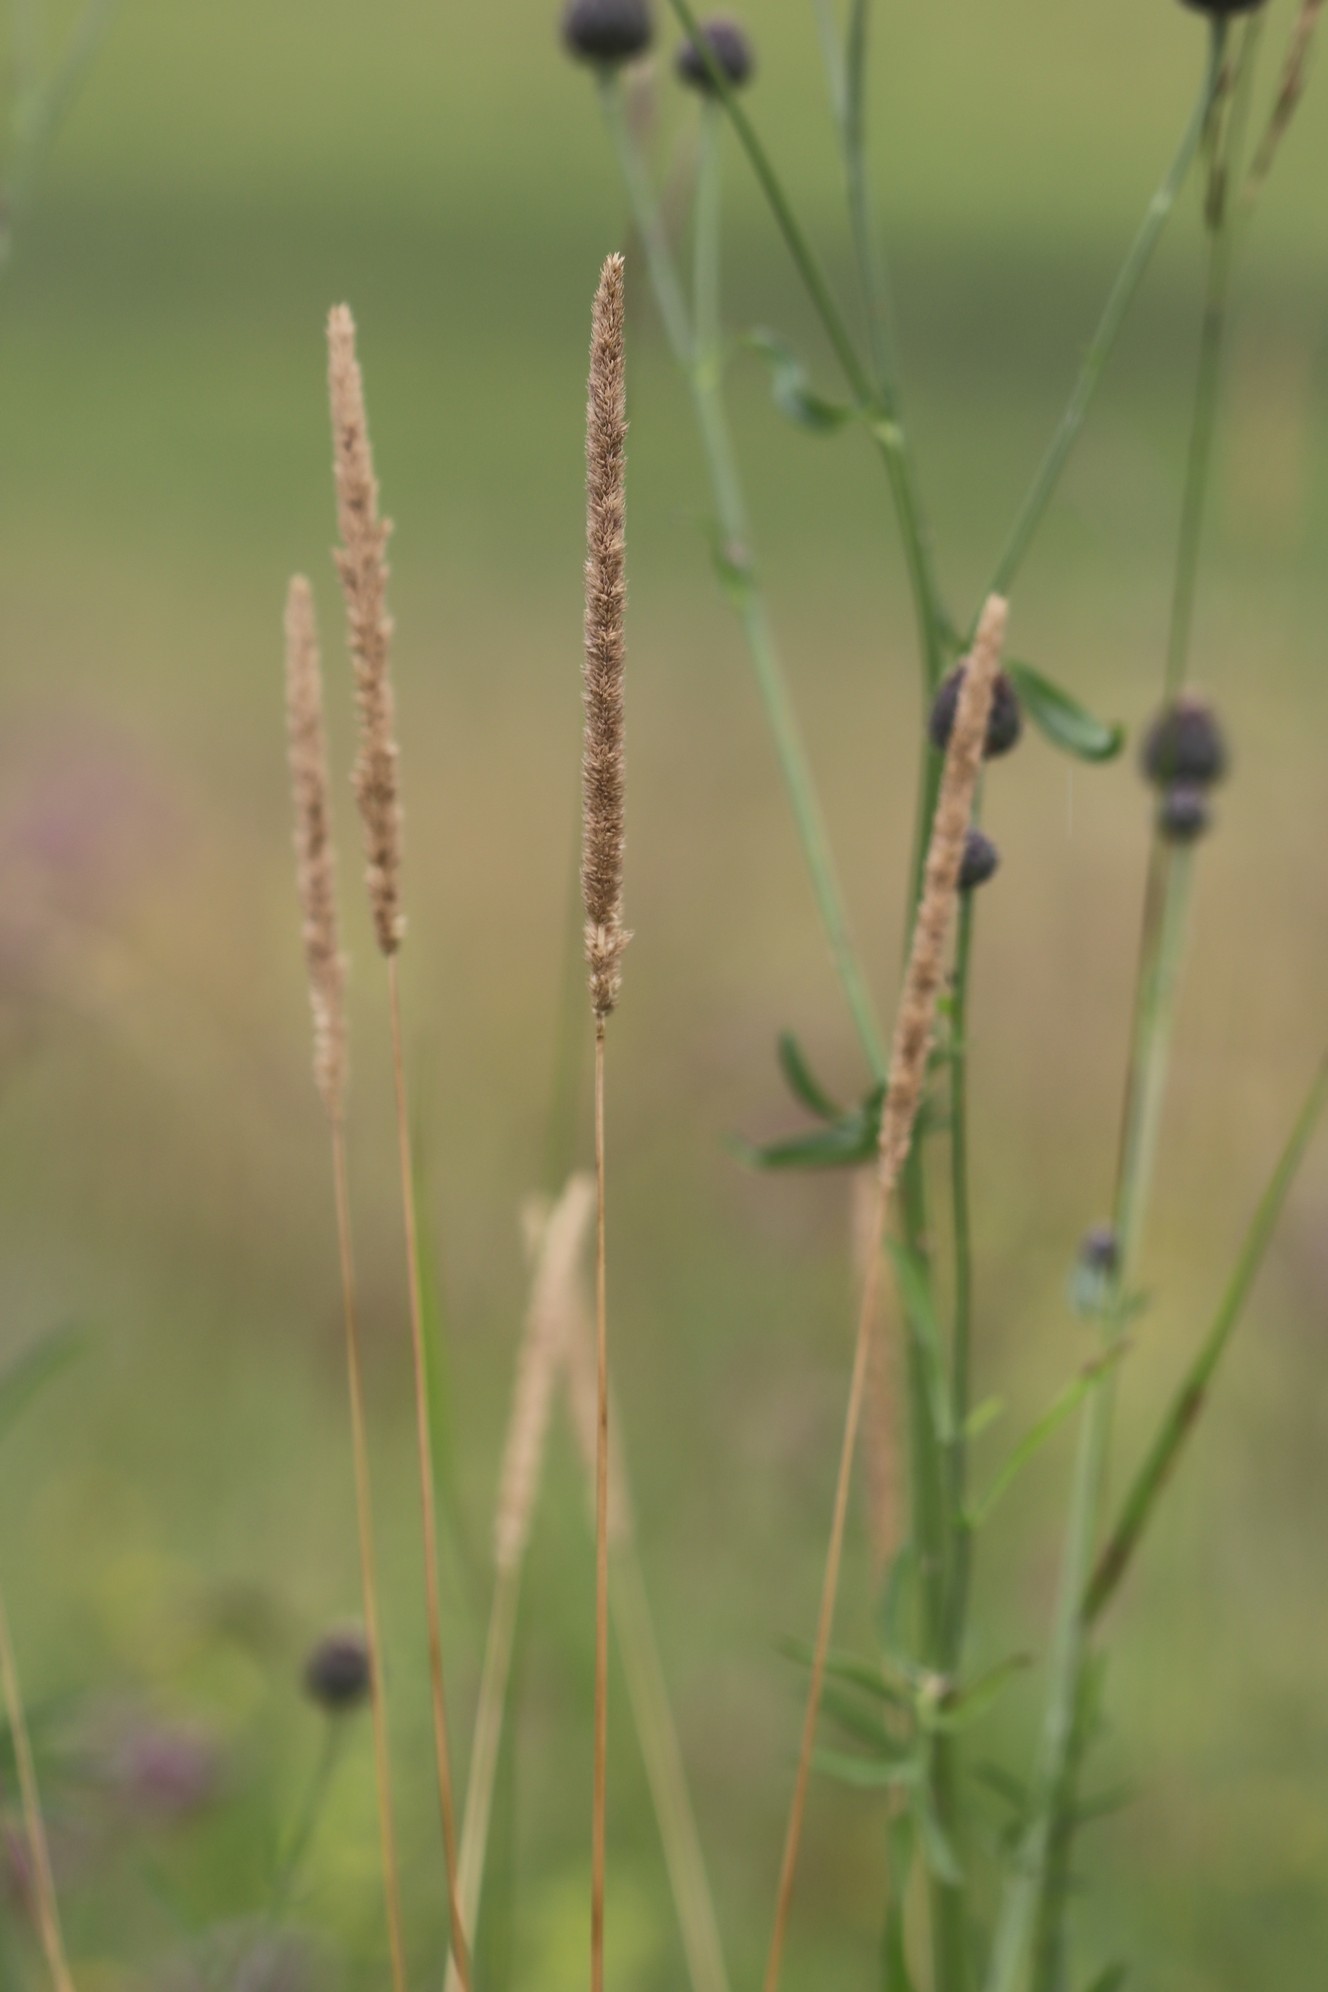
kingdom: Plantae
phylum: Tracheophyta
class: Liliopsida
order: Poales
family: Poaceae
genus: Phleum
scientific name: Phleum phleoides
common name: Purple-stem cat's-tail
